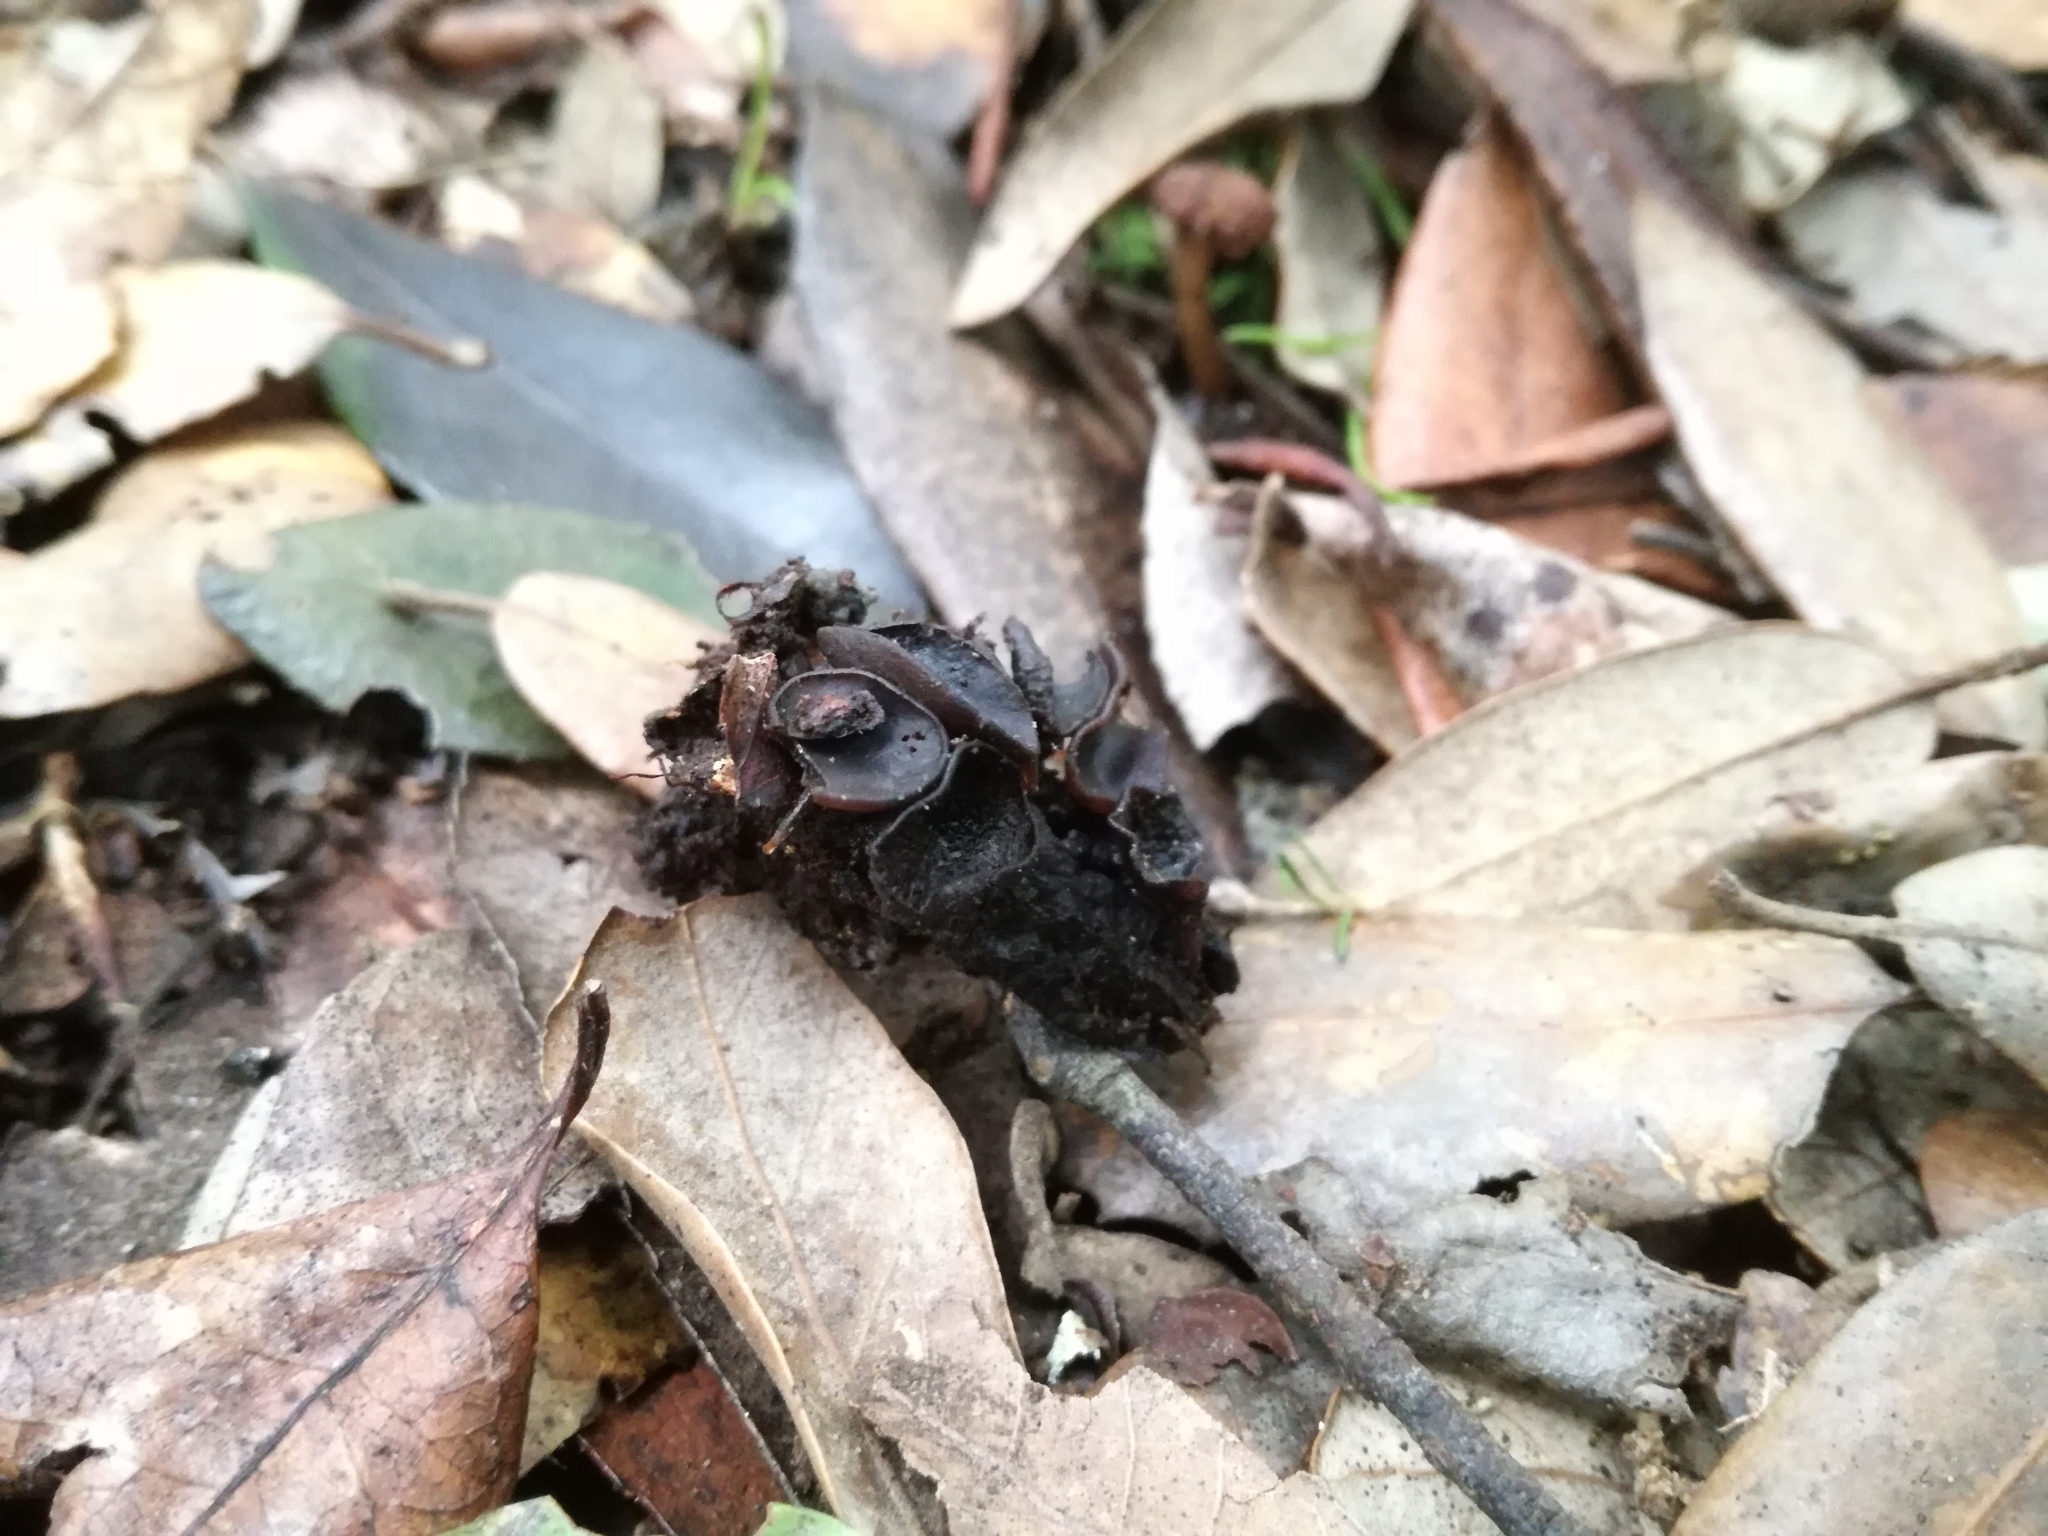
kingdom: Fungi
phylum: Ascomycota
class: Leotiomycetes
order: Helotiales
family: Sclerotiniaceae
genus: Ciboria
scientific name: Ciboria batschiana
